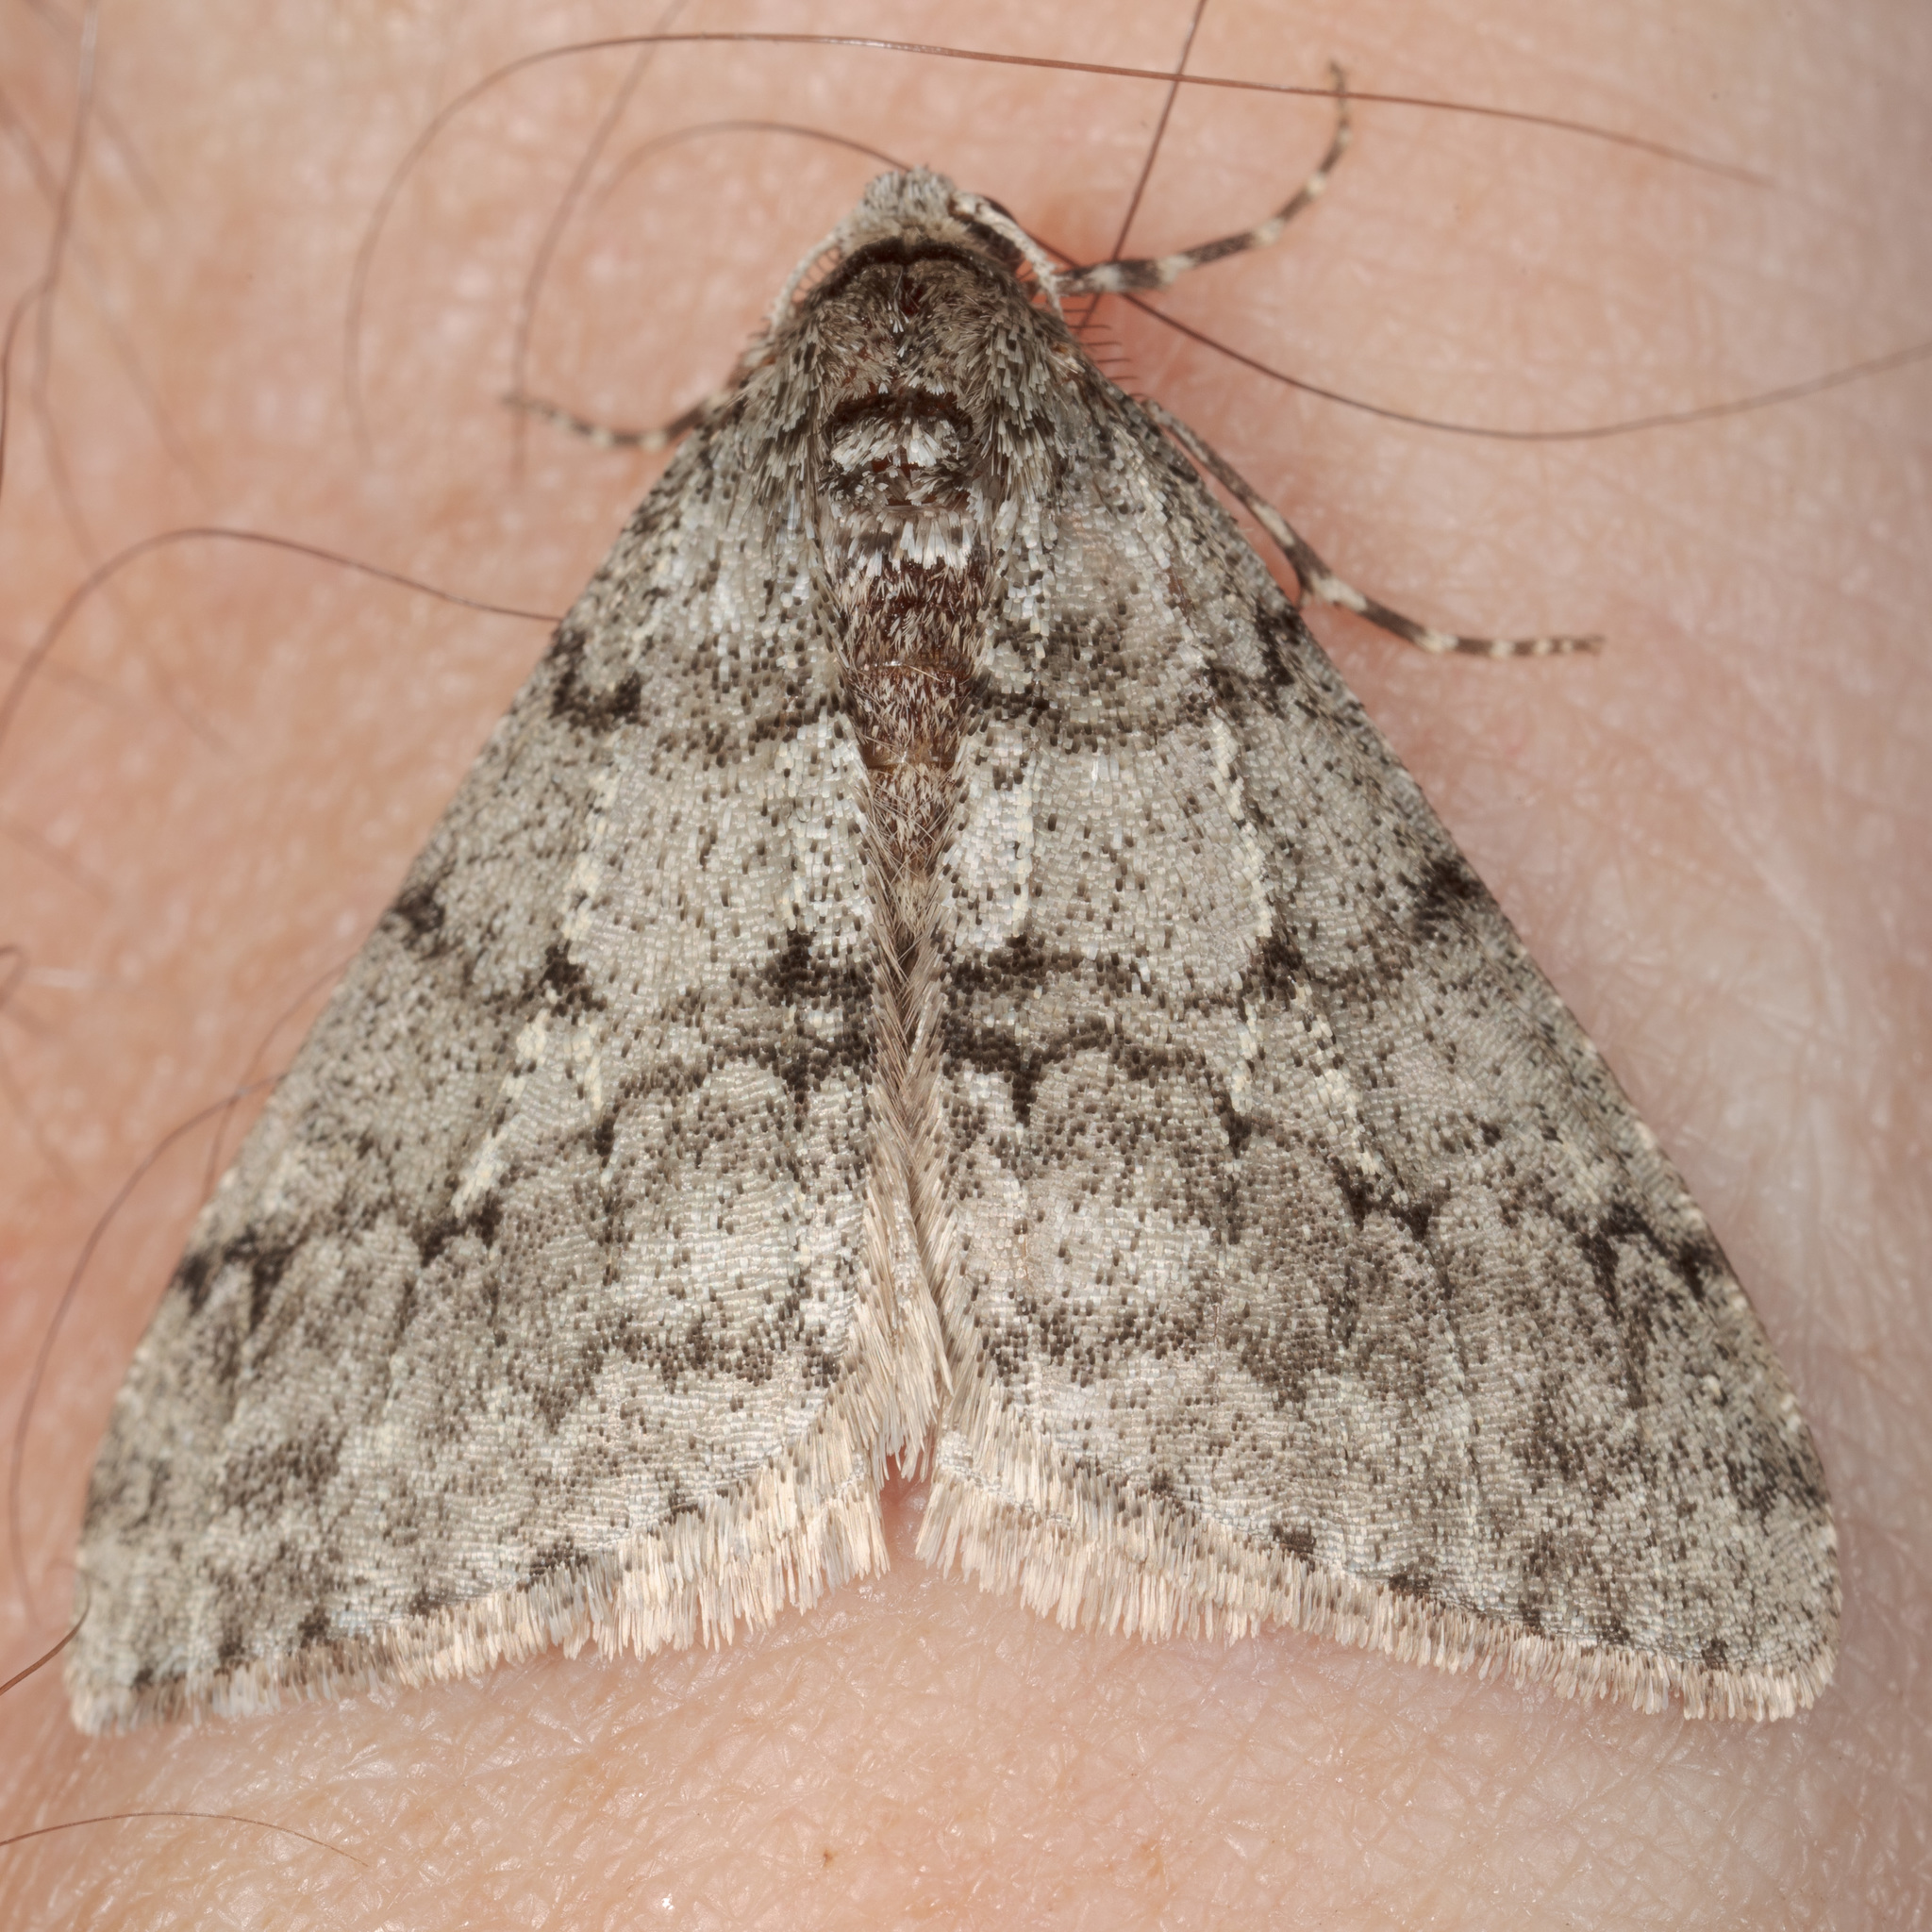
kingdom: Animalia
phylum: Arthropoda
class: Insecta
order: Lepidoptera
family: Geometridae
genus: Phigalia
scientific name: Phigalia strigataria
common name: Small phigalia
